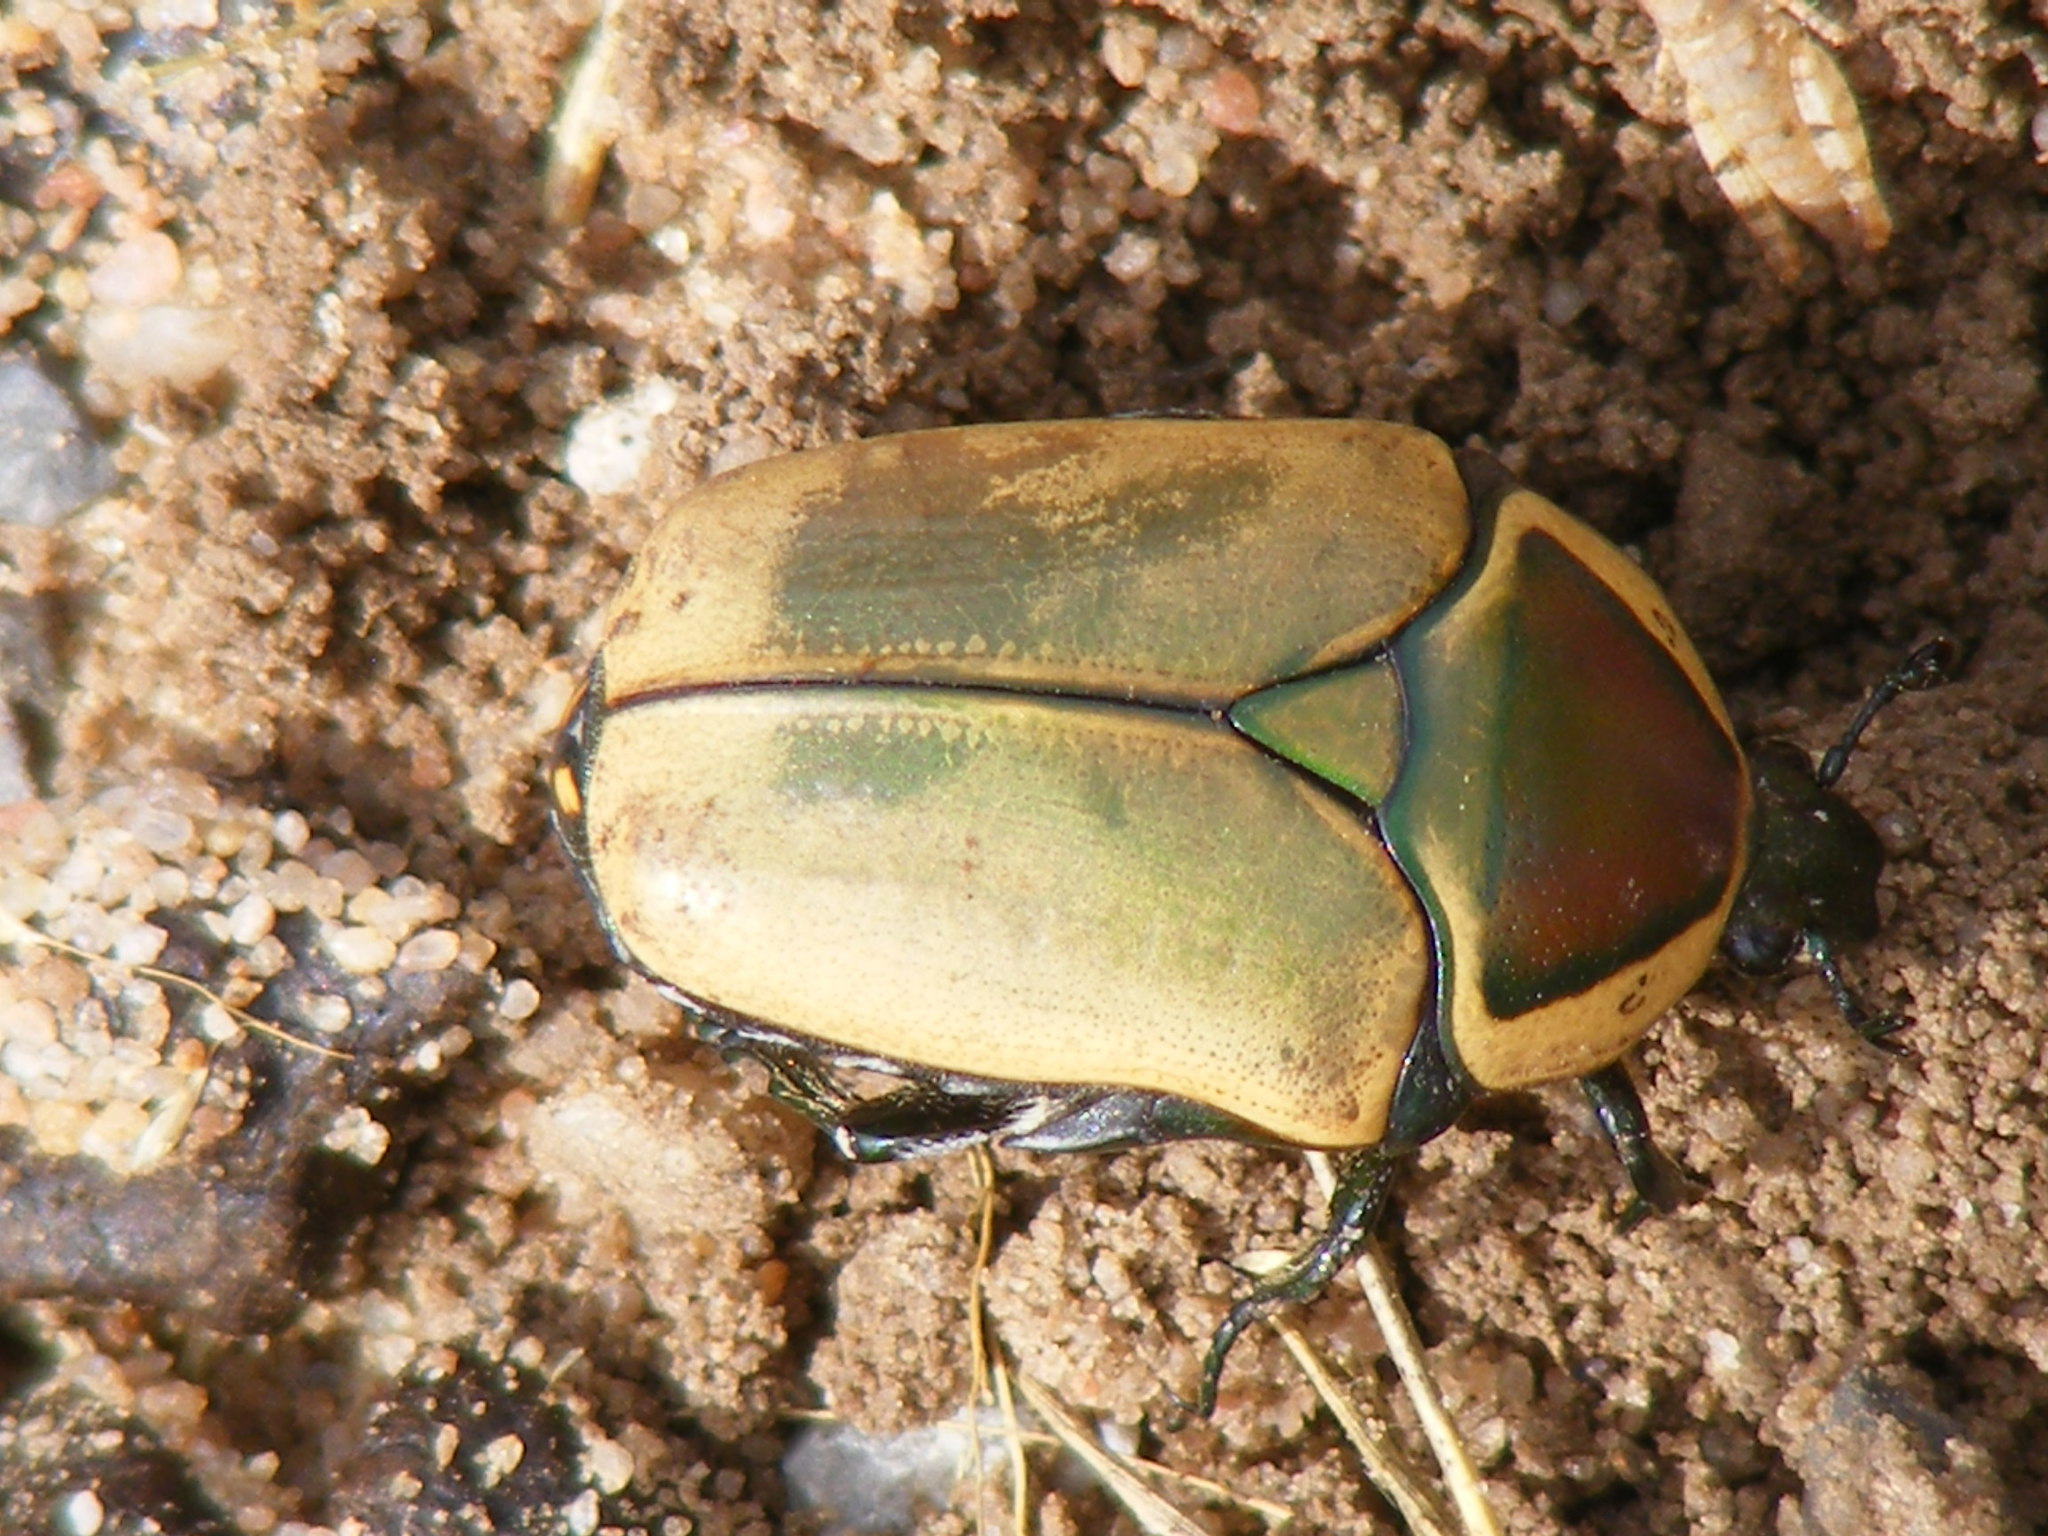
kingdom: Animalia
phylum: Arthropoda
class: Insecta
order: Coleoptera
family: Scarabaeidae
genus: Dischista
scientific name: Dischista cincta
